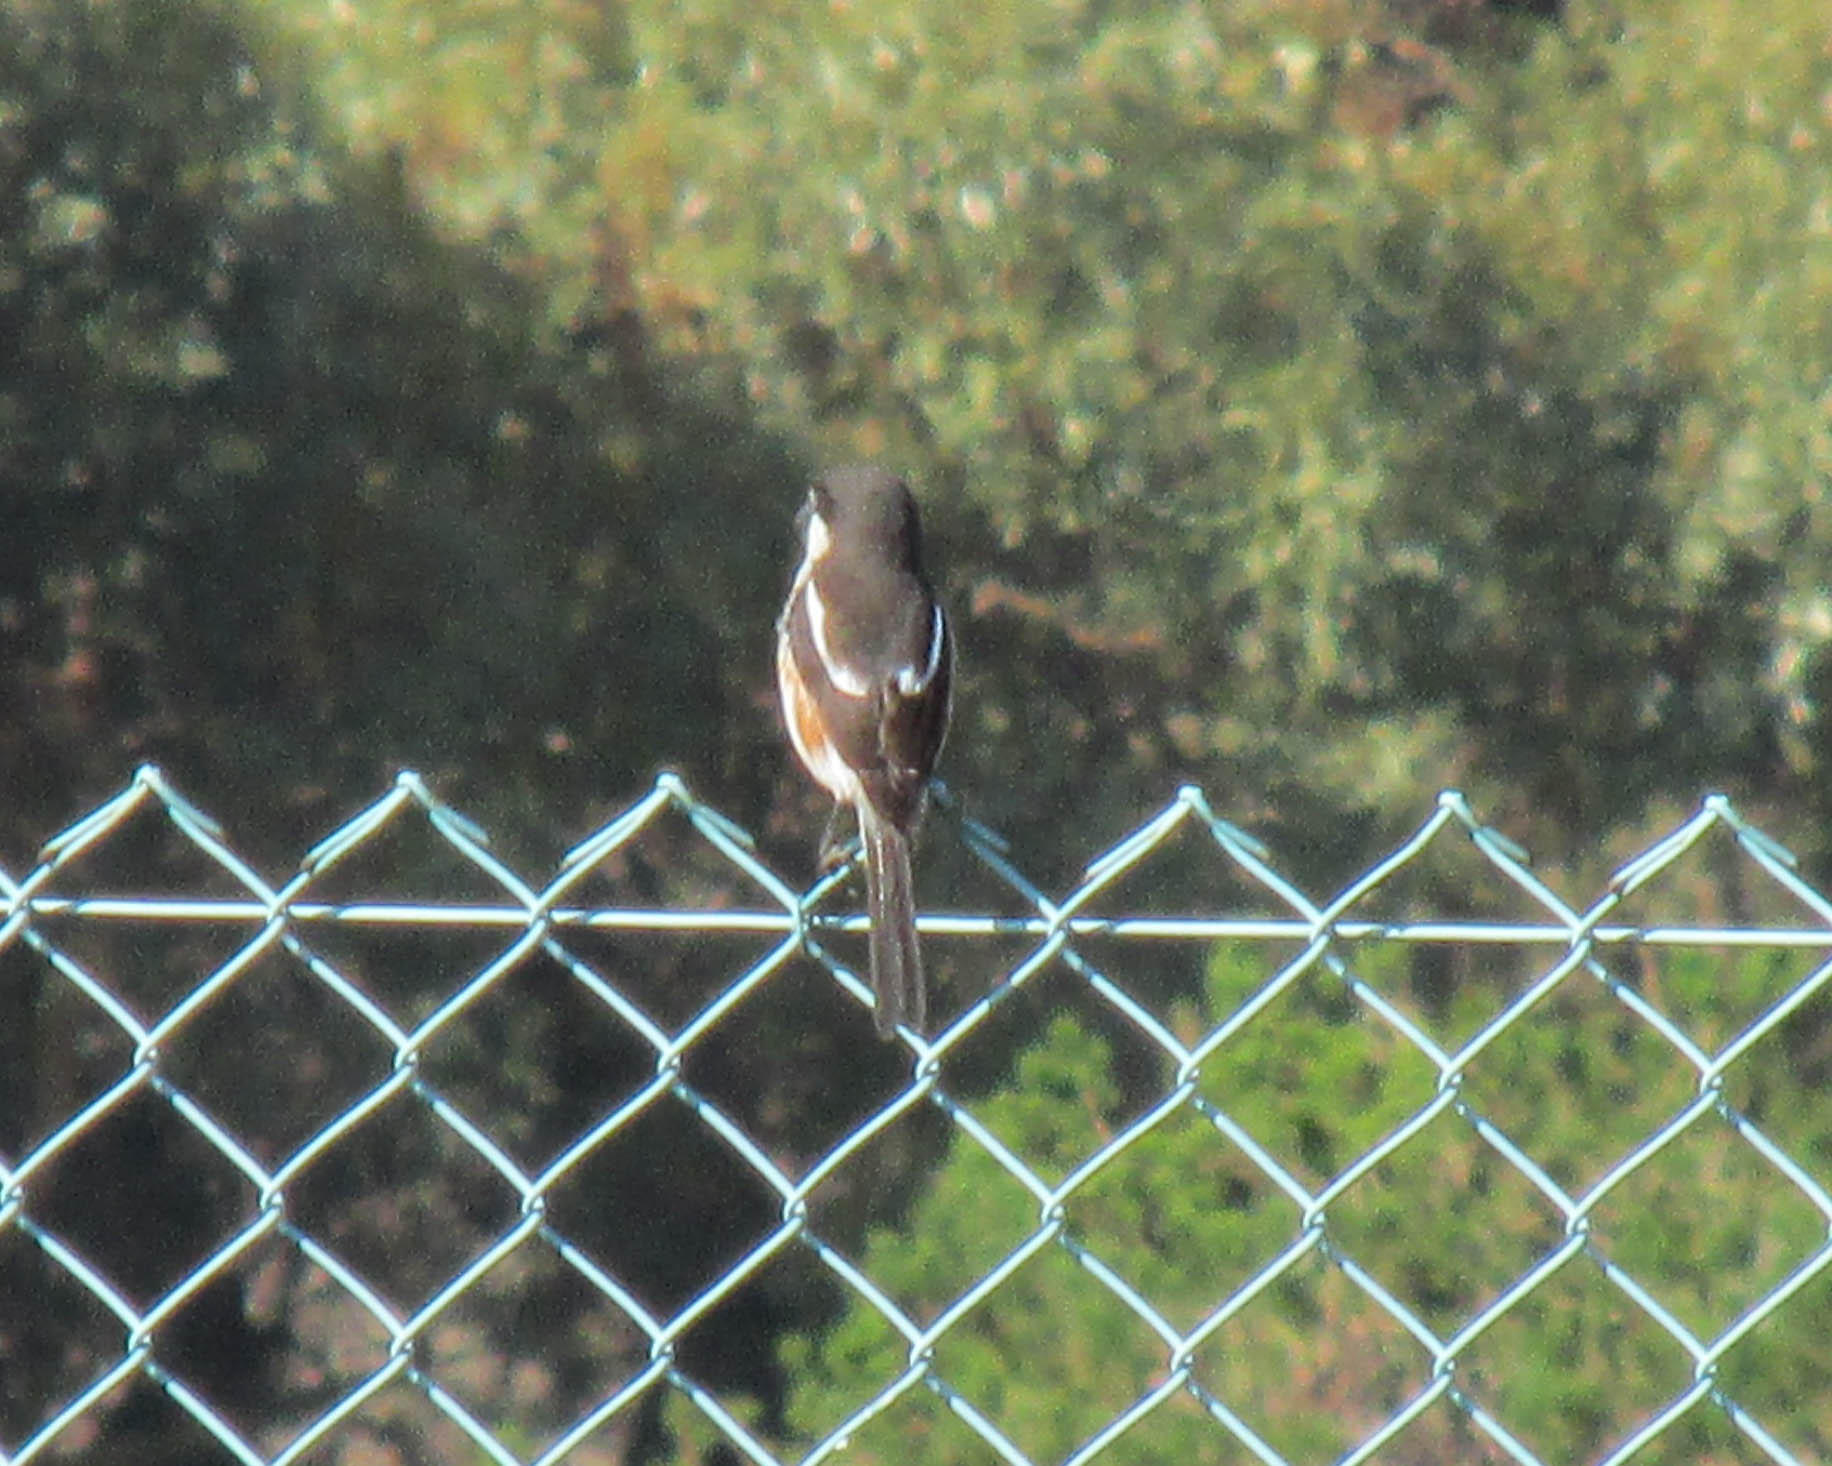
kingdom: Animalia
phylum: Chordata
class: Aves
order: Passeriformes
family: Laniidae
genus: Lanius
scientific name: Lanius collaris
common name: Southern fiscal
